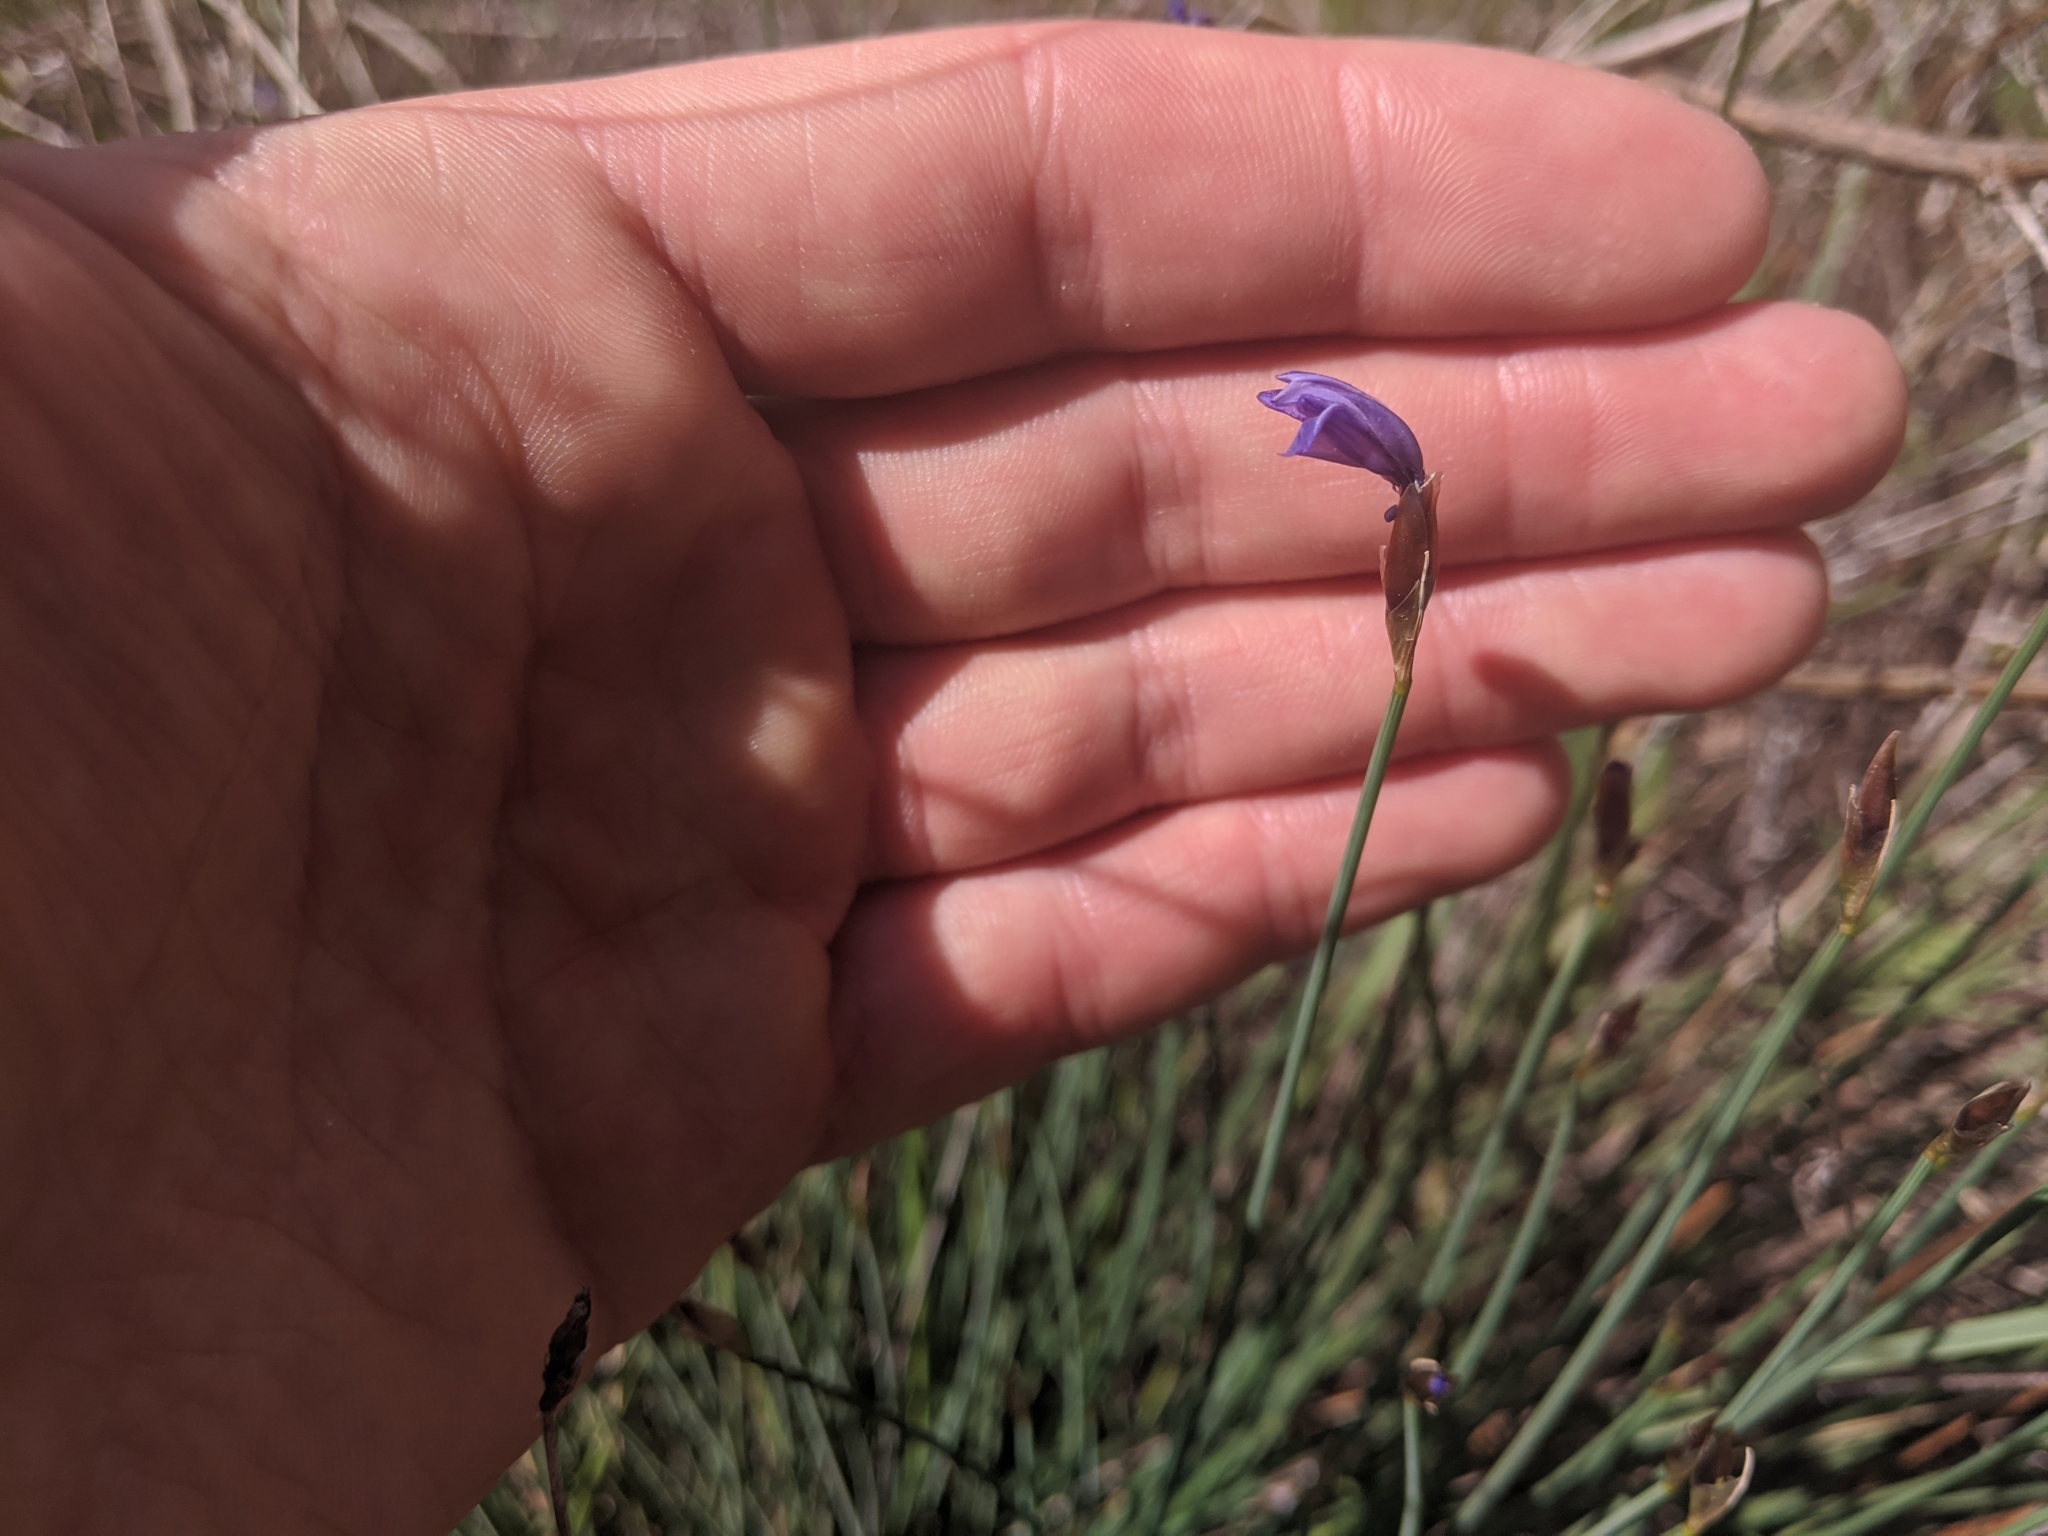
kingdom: Plantae
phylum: Tracheophyta
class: Liliopsida
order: Asparagales
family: Asparagaceae
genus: Aphyllanthes
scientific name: Aphyllanthes monspeliensis
